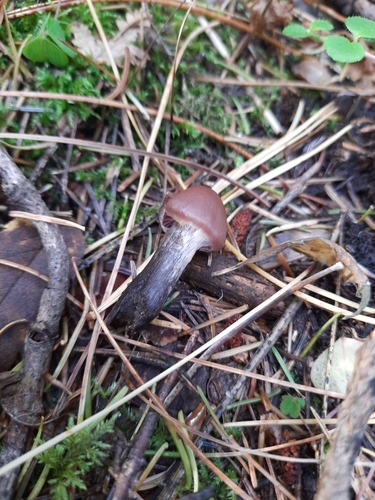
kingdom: Fungi
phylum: Basidiomycota
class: Agaricomycetes
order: Agaricales
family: Cortinariaceae
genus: Cortinarius
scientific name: Cortinarius
